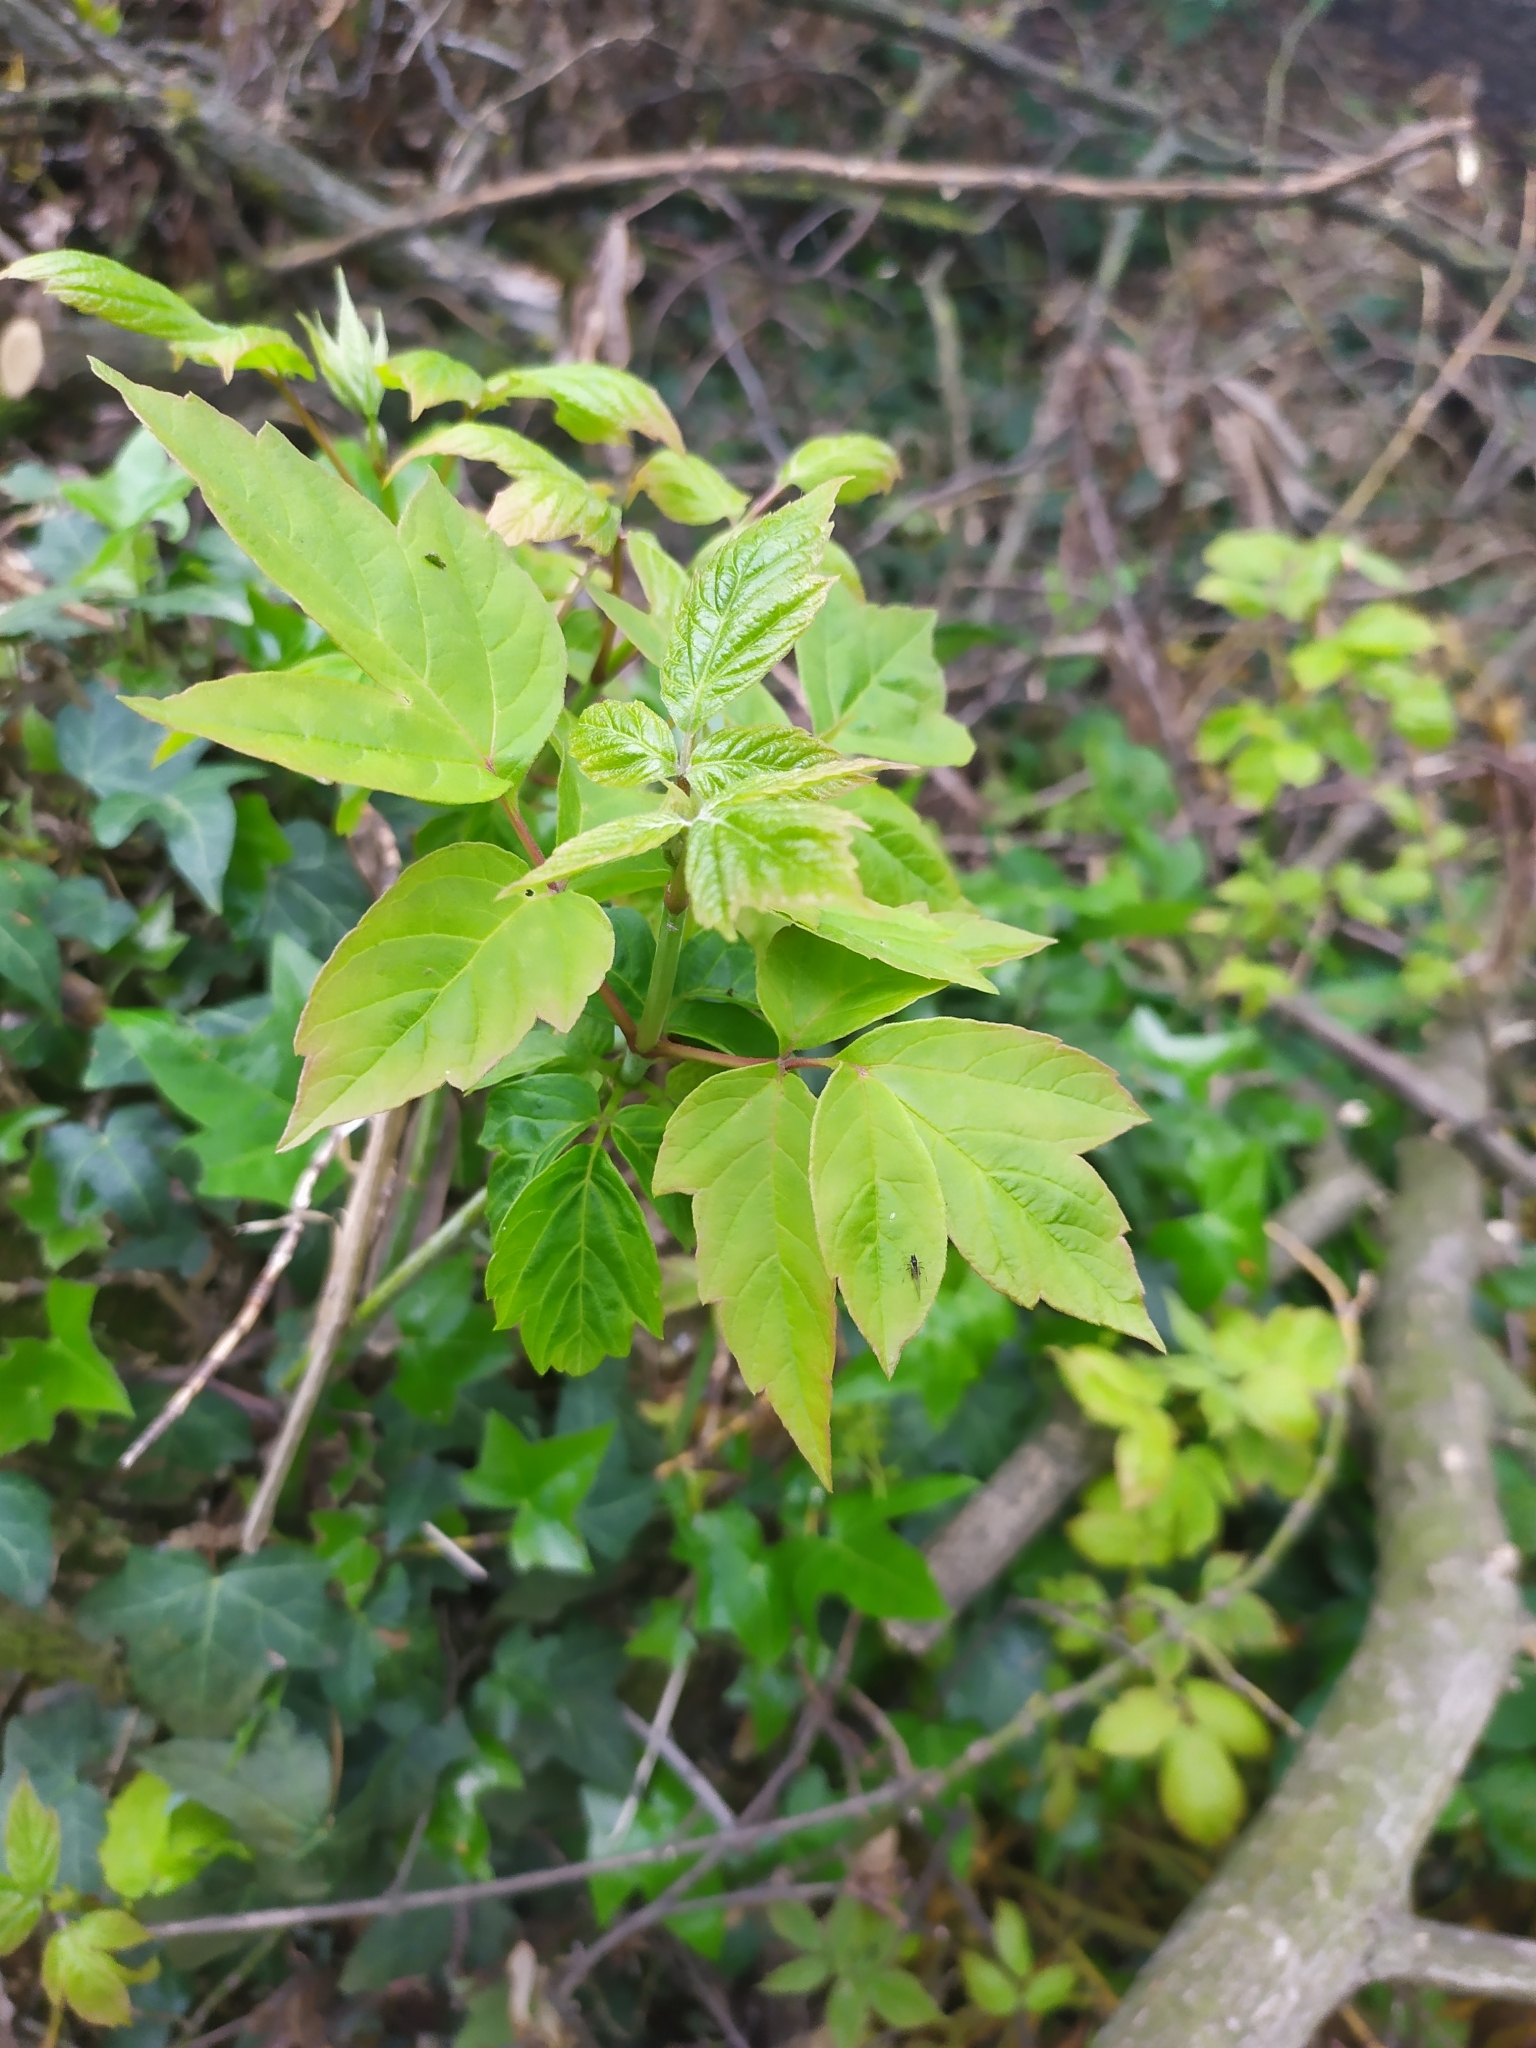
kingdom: Plantae
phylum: Tracheophyta
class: Magnoliopsida
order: Sapindales
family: Sapindaceae
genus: Acer
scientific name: Acer negundo
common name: Ashleaf maple
